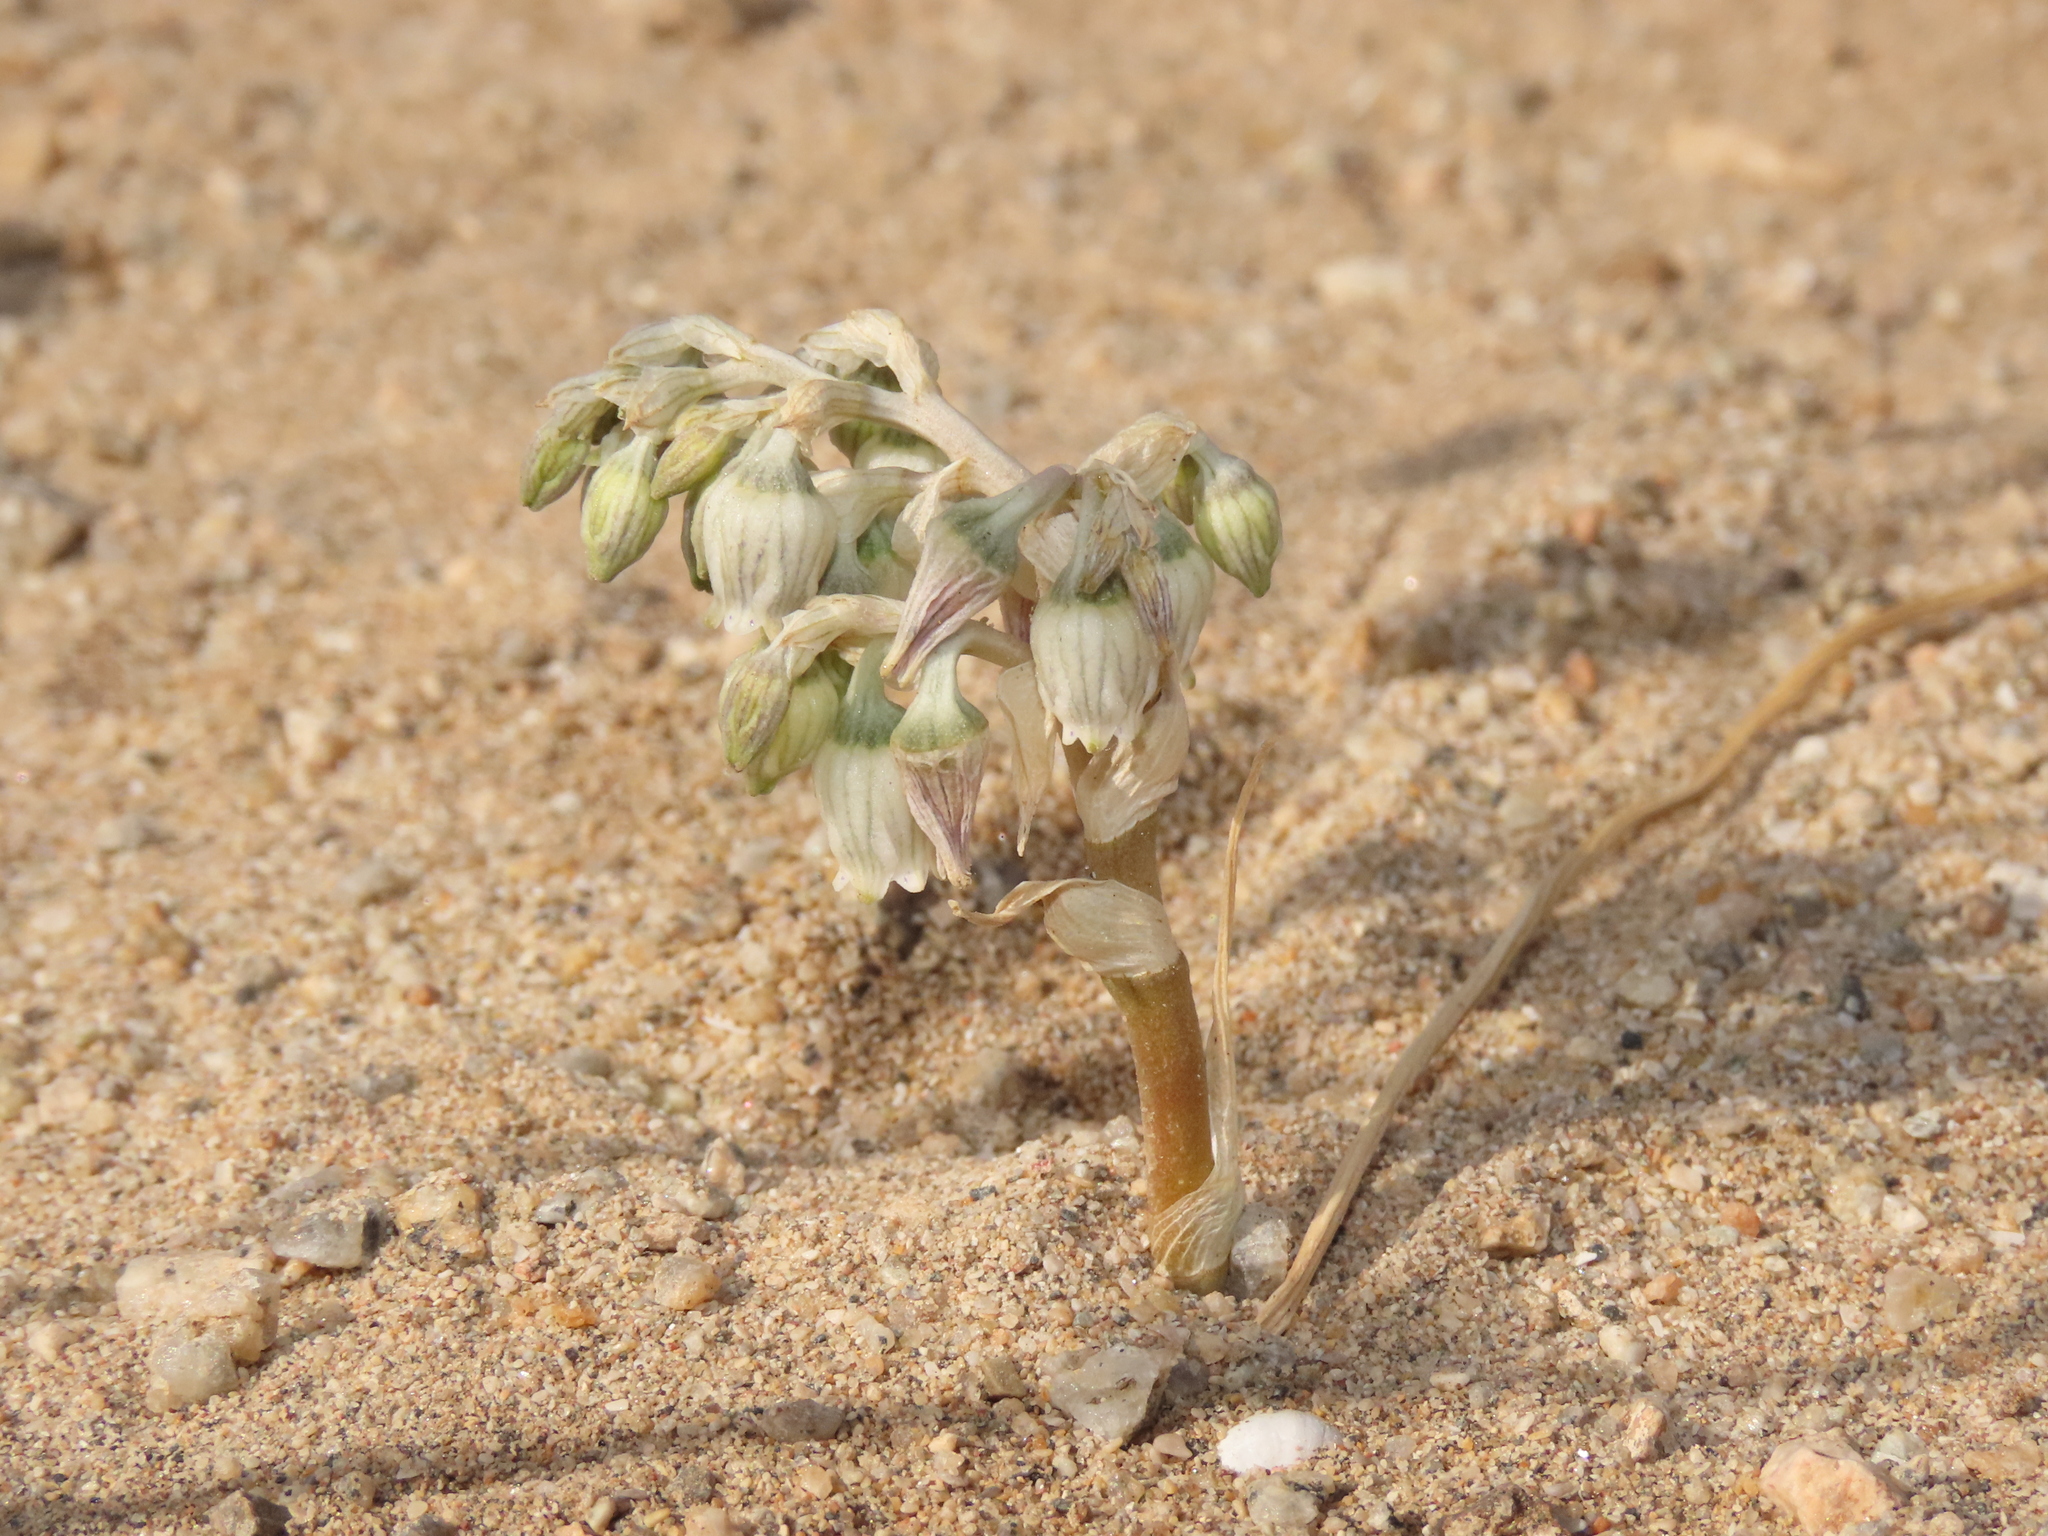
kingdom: Plantae
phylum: Tracheophyta
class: Liliopsida
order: Asparagales
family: Tecophilaeaceae
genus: Conanthera
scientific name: Conanthera urceolata
